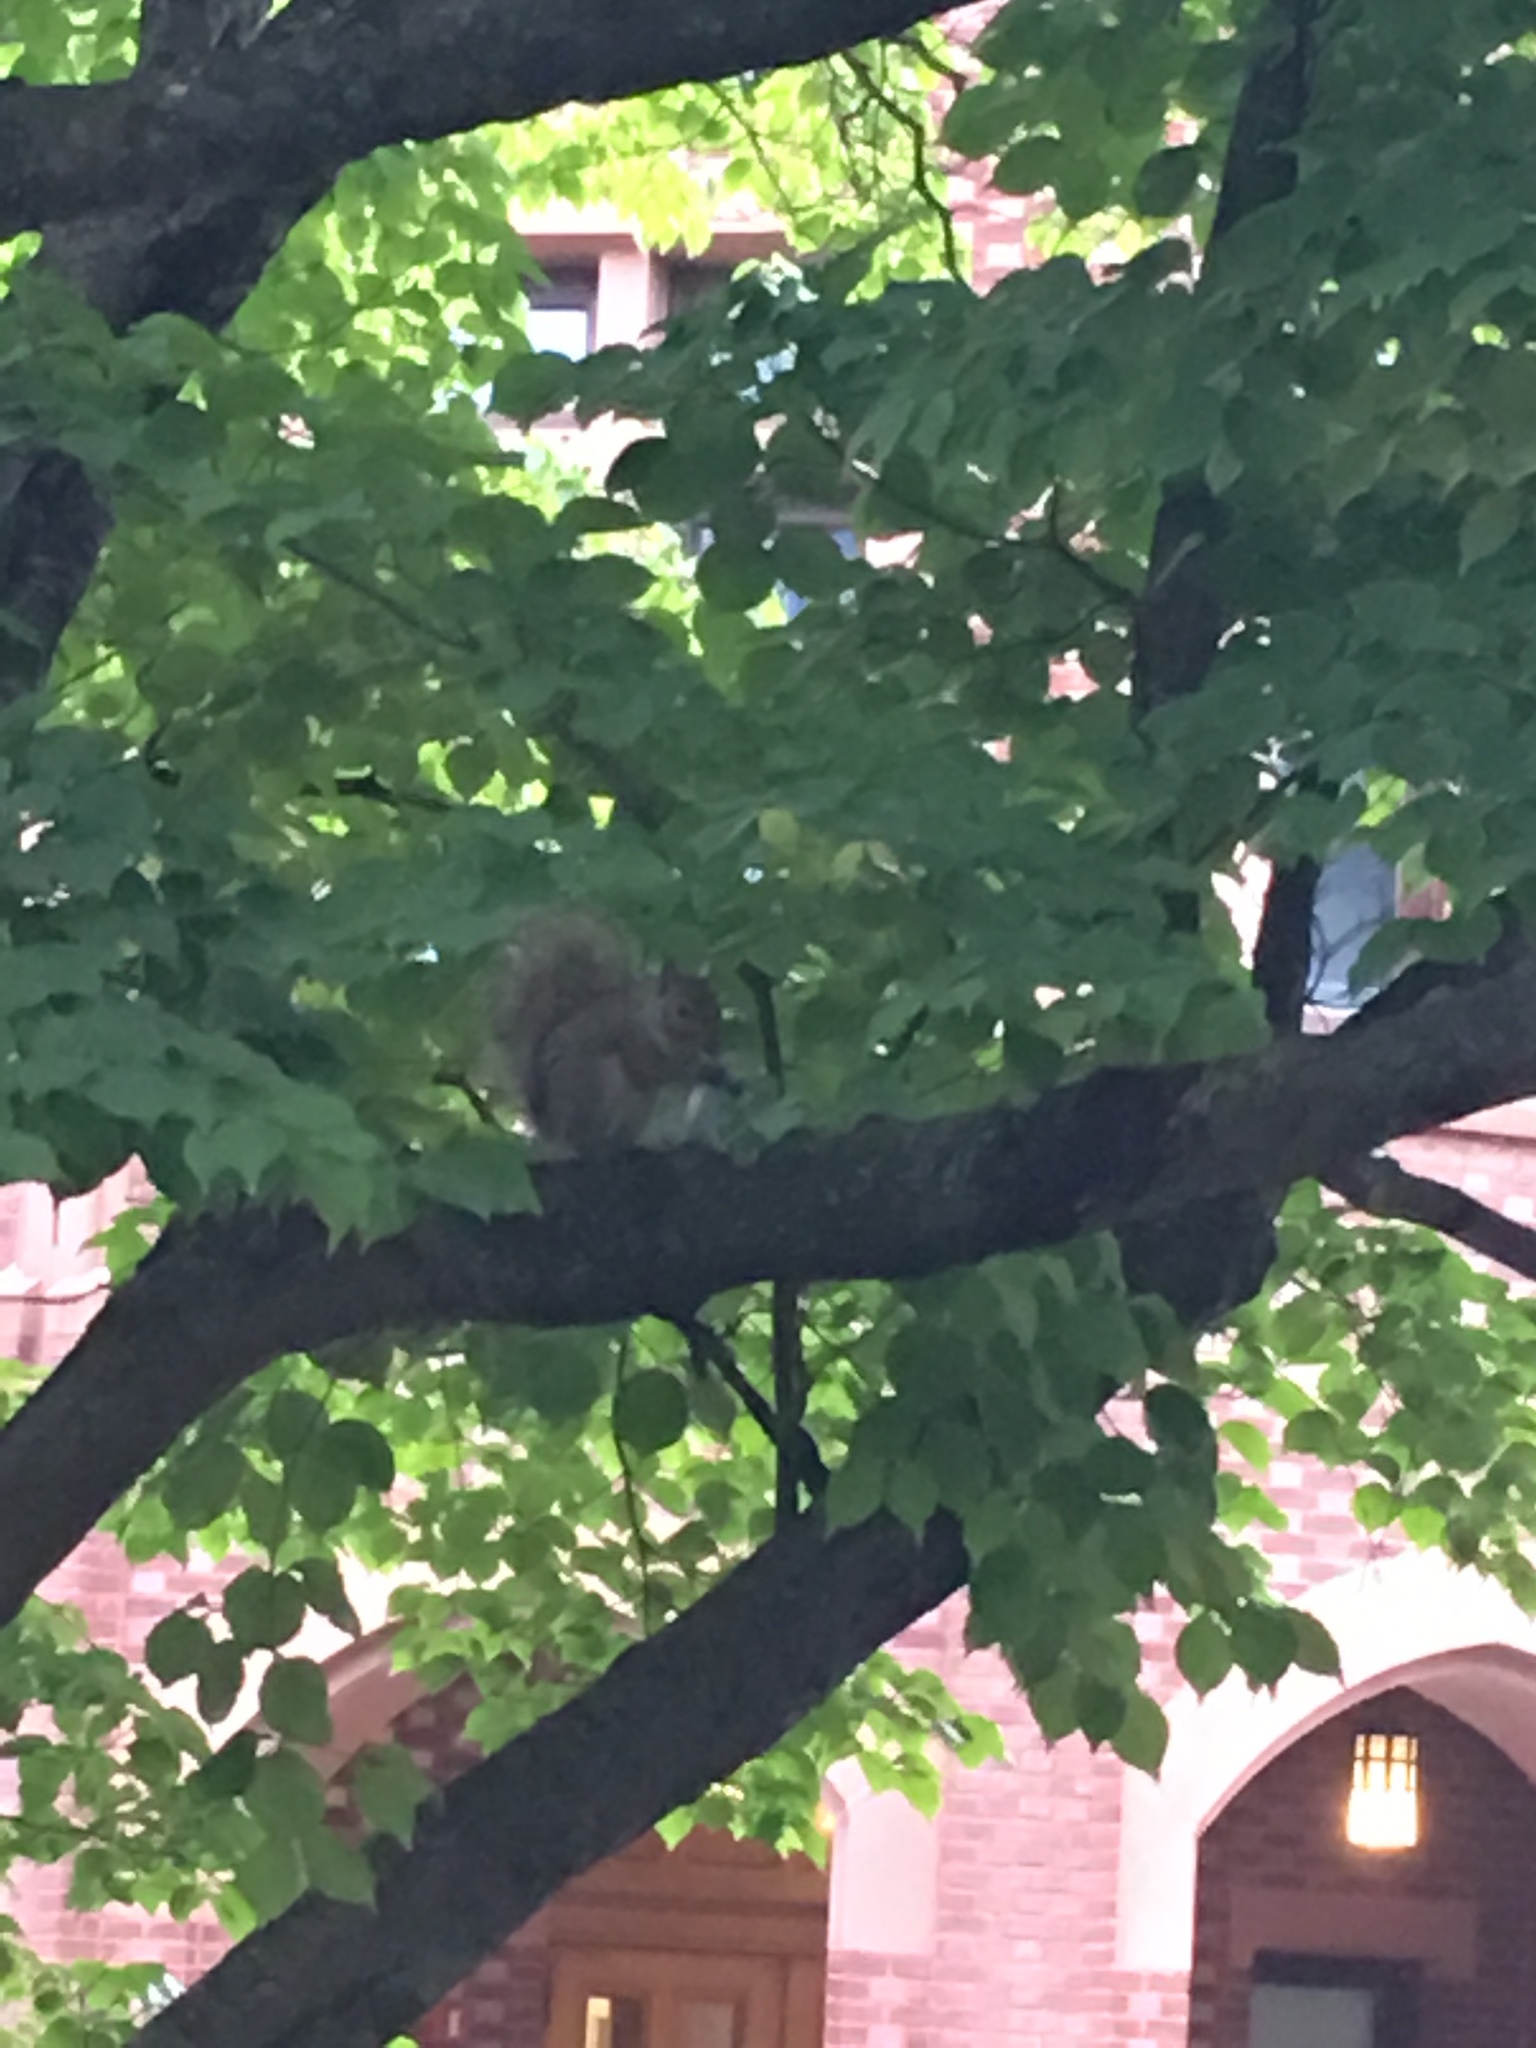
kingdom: Animalia
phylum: Chordata
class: Mammalia
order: Rodentia
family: Sciuridae
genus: Sciurus
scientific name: Sciurus carolinensis
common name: Eastern gray squirrel
